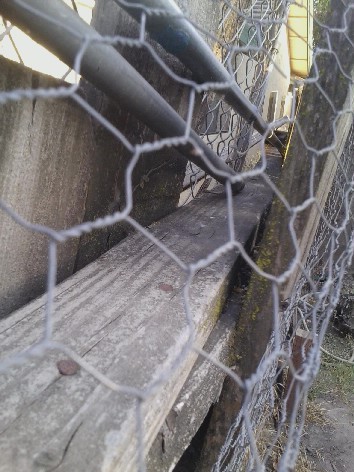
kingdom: Animalia
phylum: Chordata
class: Squamata
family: Phrynosomatidae
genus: Sceloporus
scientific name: Sceloporus occidentalis
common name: Western fence lizard
